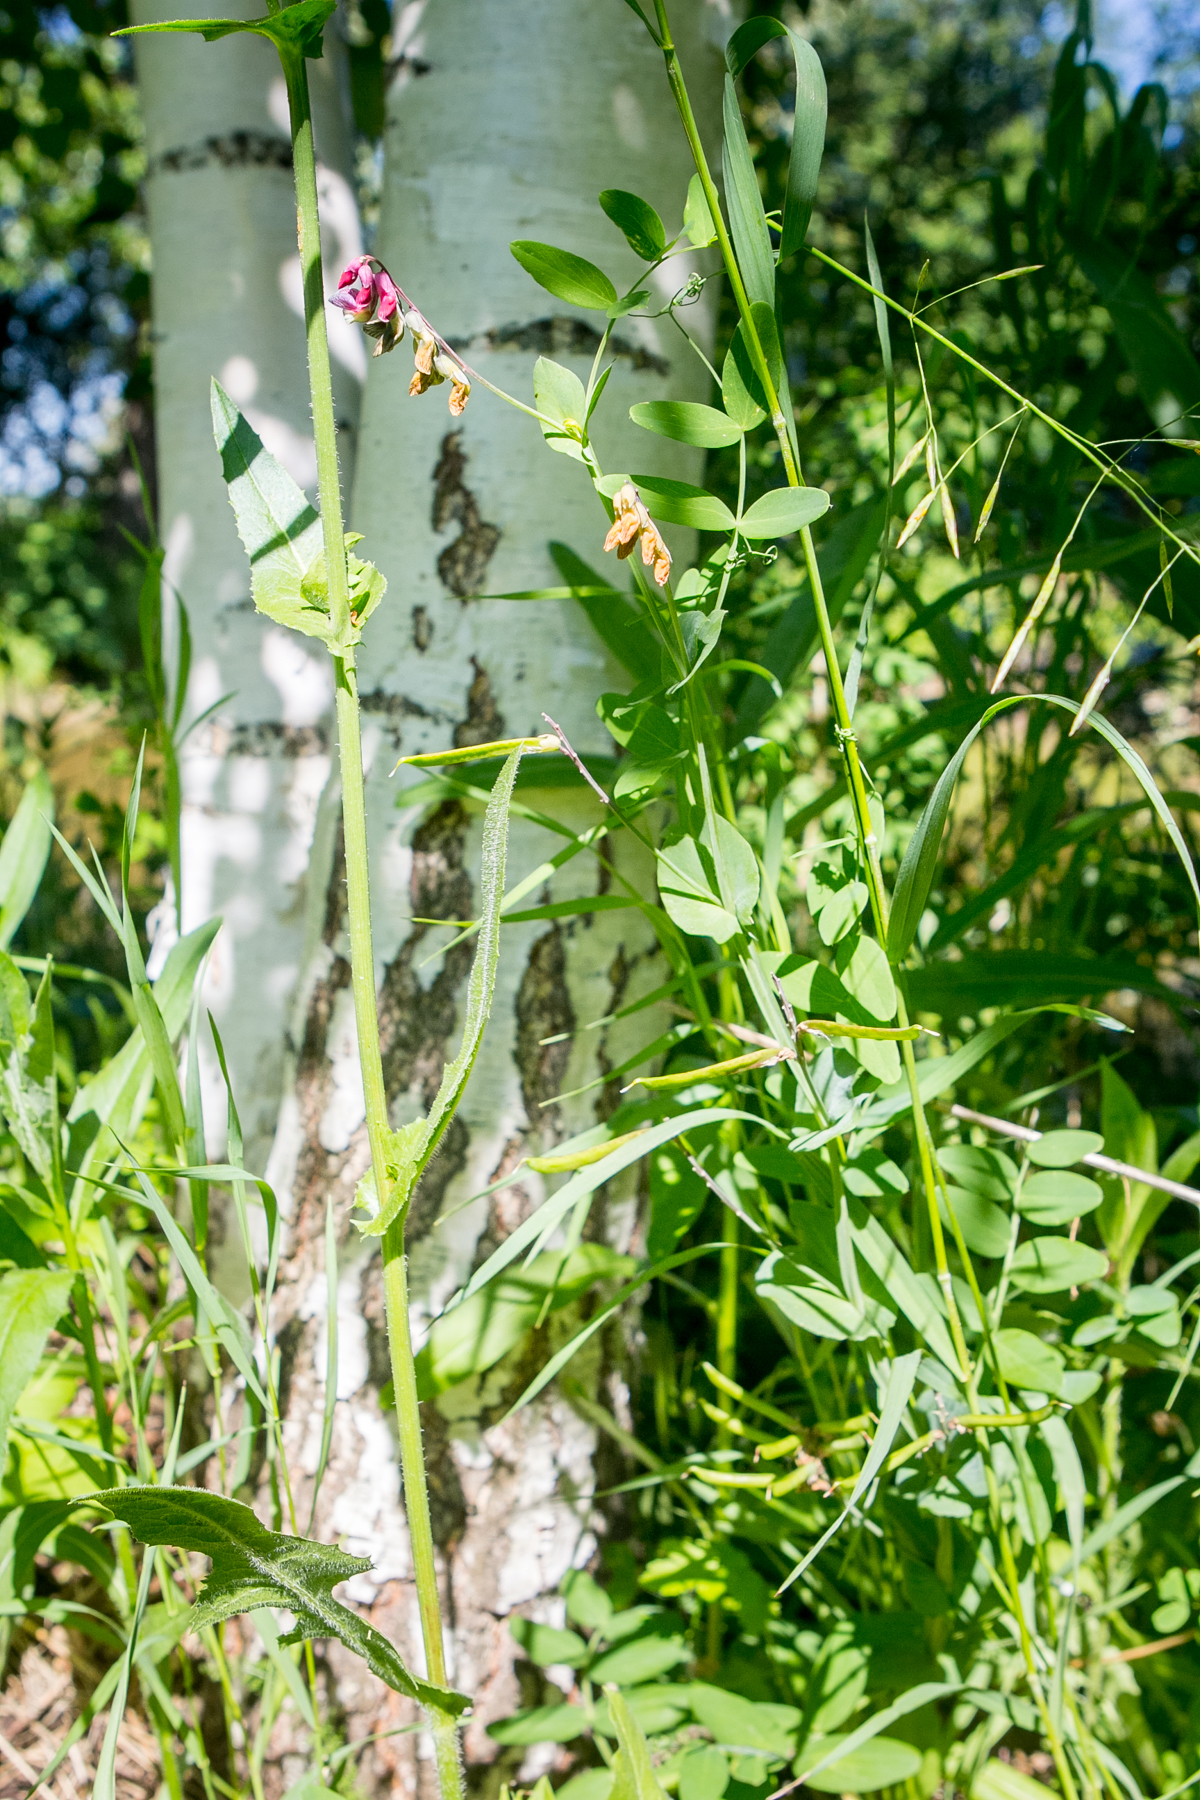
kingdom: Plantae
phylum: Tracheophyta
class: Magnoliopsida
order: Fabales
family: Fabaceae
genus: Lathyrus
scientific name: Lathyrus pisiformis
